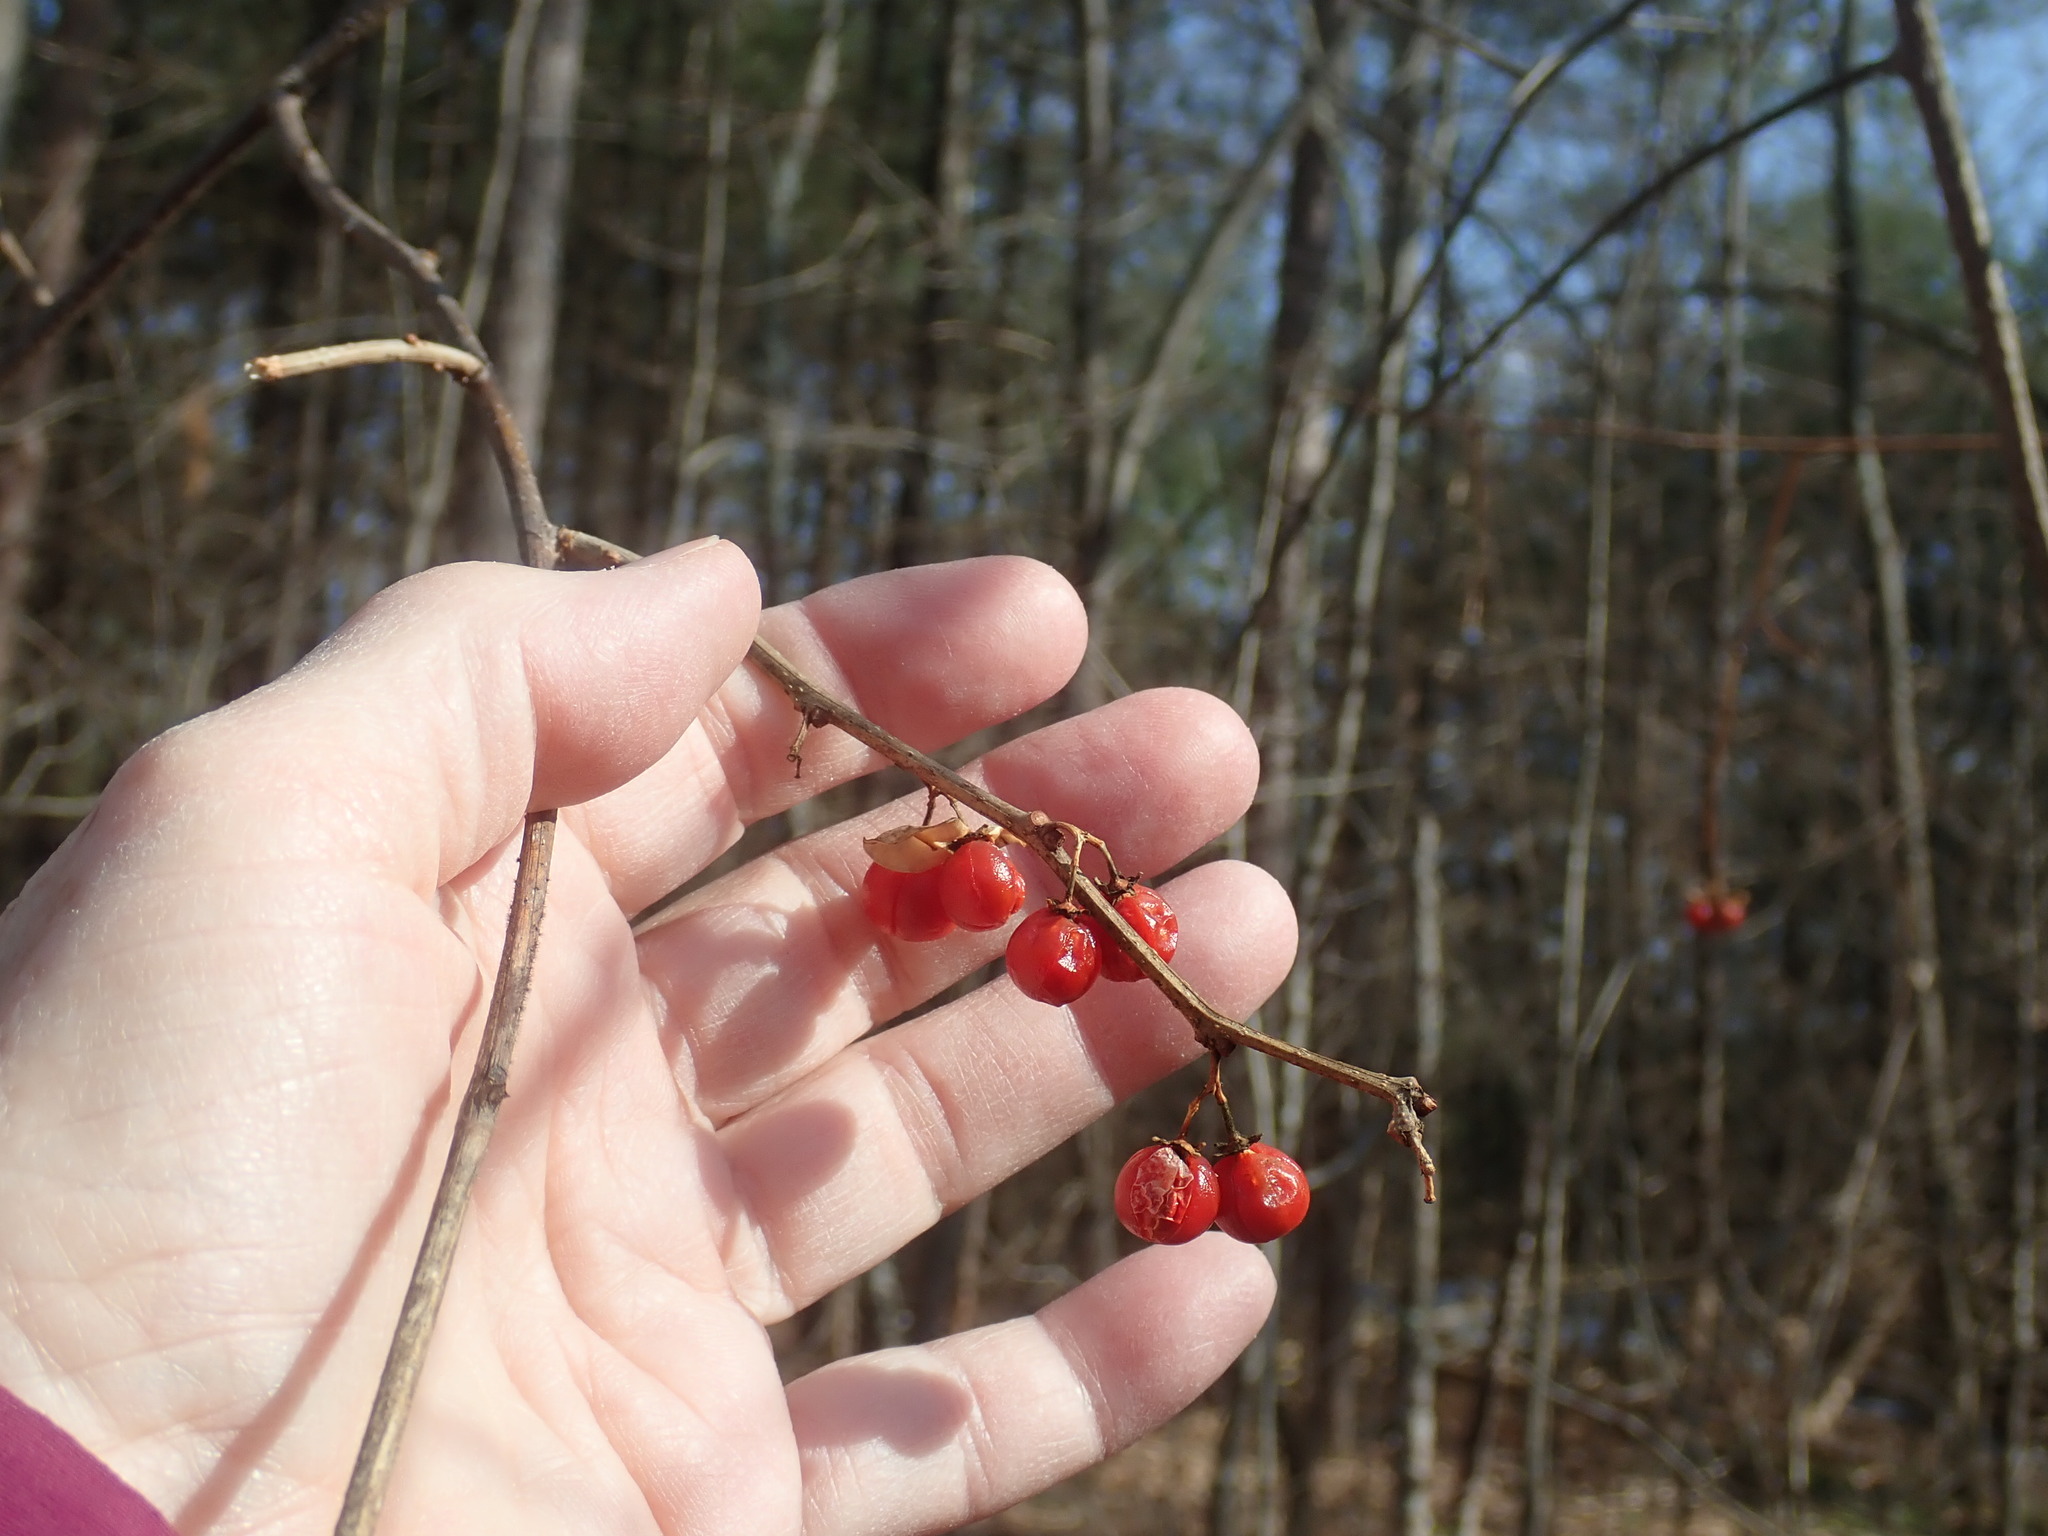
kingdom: Plantae
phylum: Tracheophyta
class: Magnoliopsida
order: Celastrales
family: Celastraceae
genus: Celastrus
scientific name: Celastrus orbiculatus
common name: Oriental bittersweet
